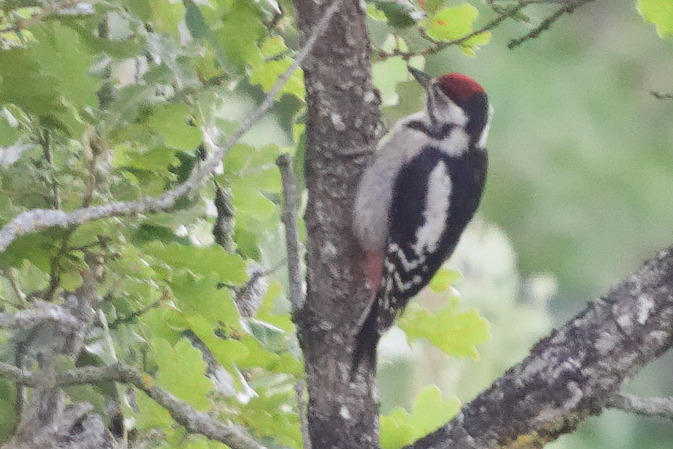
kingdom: Animalia
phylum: Chordata
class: Aves
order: Piciformes
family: Picidae
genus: Dendrocopos
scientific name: Dendrocopos major
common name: Great spotted woodpecker
